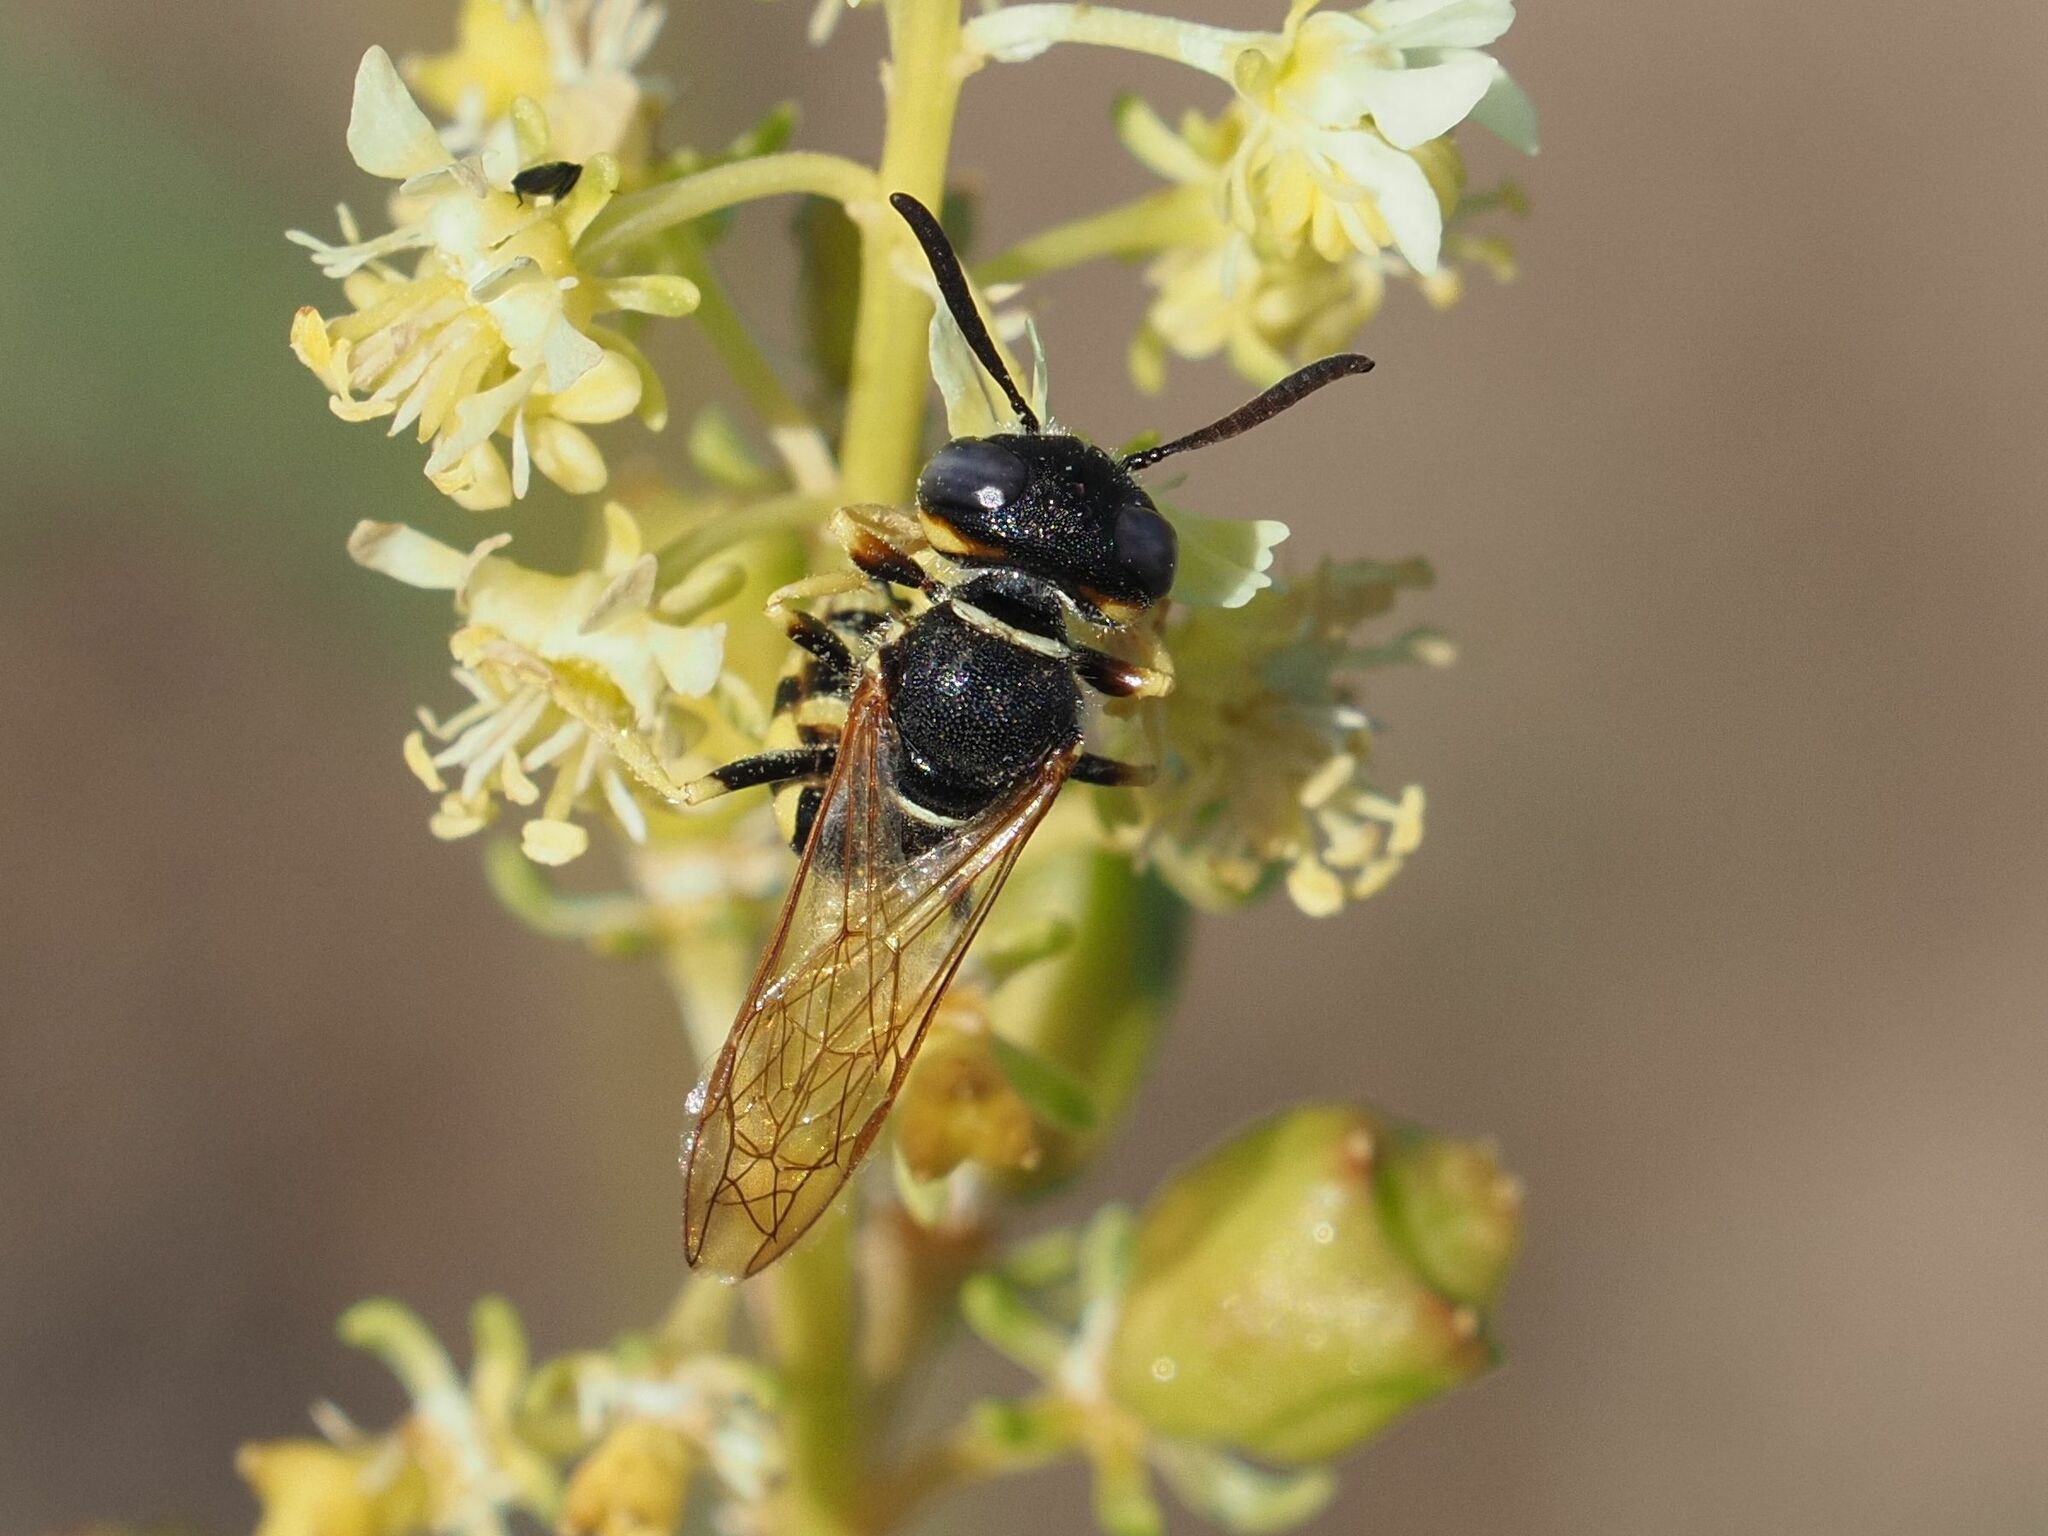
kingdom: Animalia
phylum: Arthropoda
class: Insecta
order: Hymenoptera
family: Crabronidae
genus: Philanthus
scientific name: Philanthus triangulum
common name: Bee wolf
